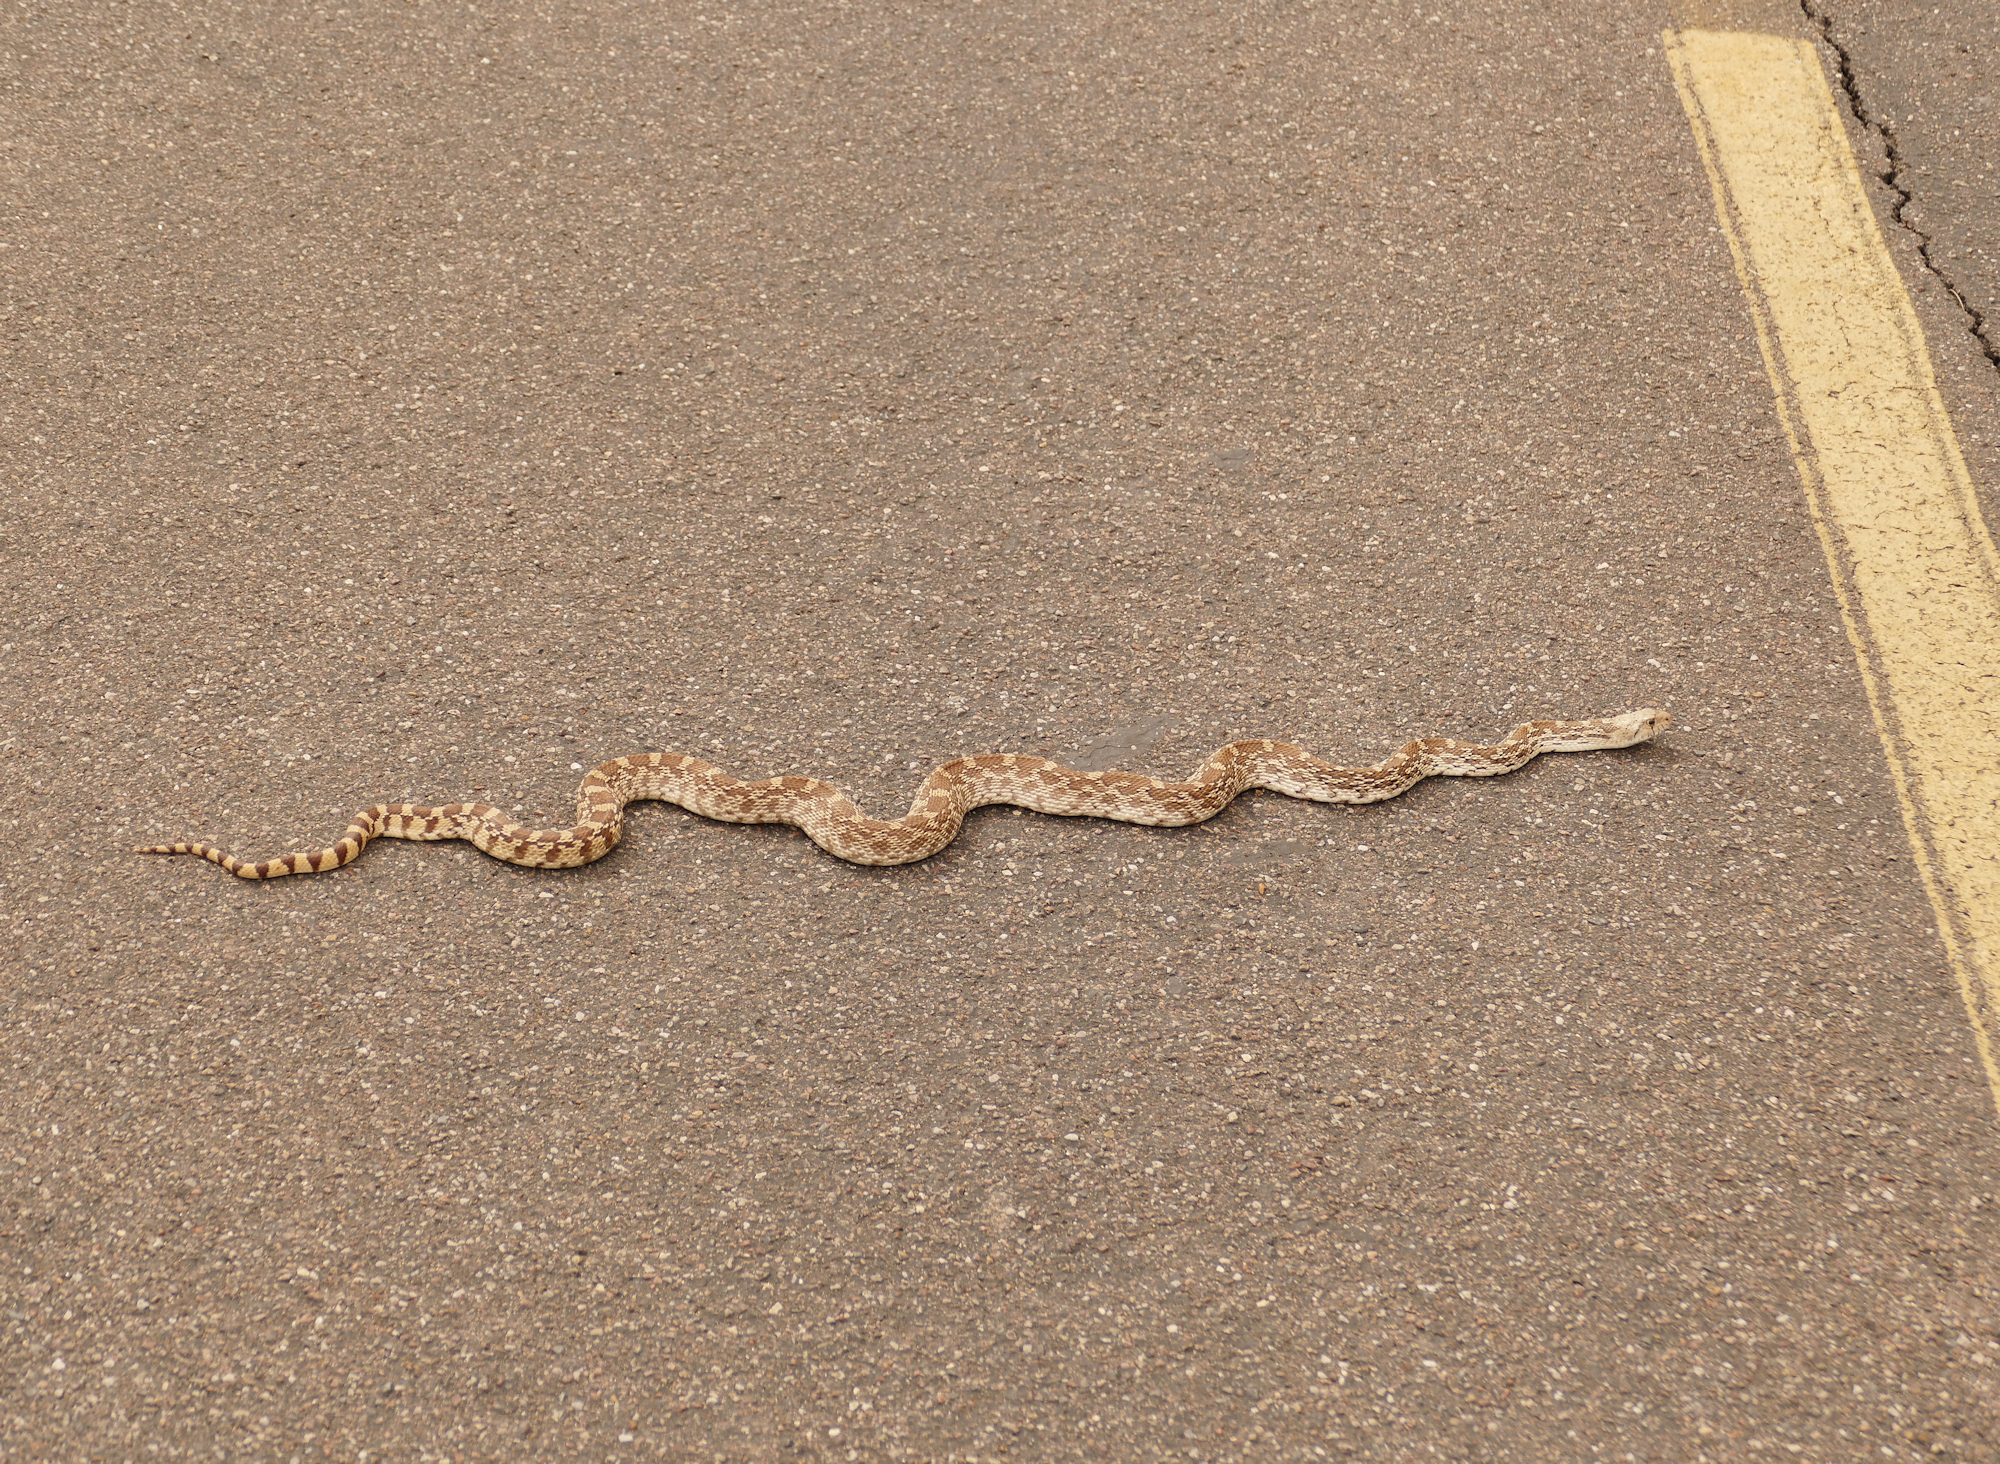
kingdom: Animalia
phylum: Chordata
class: Squamata
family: Colubridae
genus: Pituophis
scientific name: Pituophis catenifer
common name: Gopher snake
